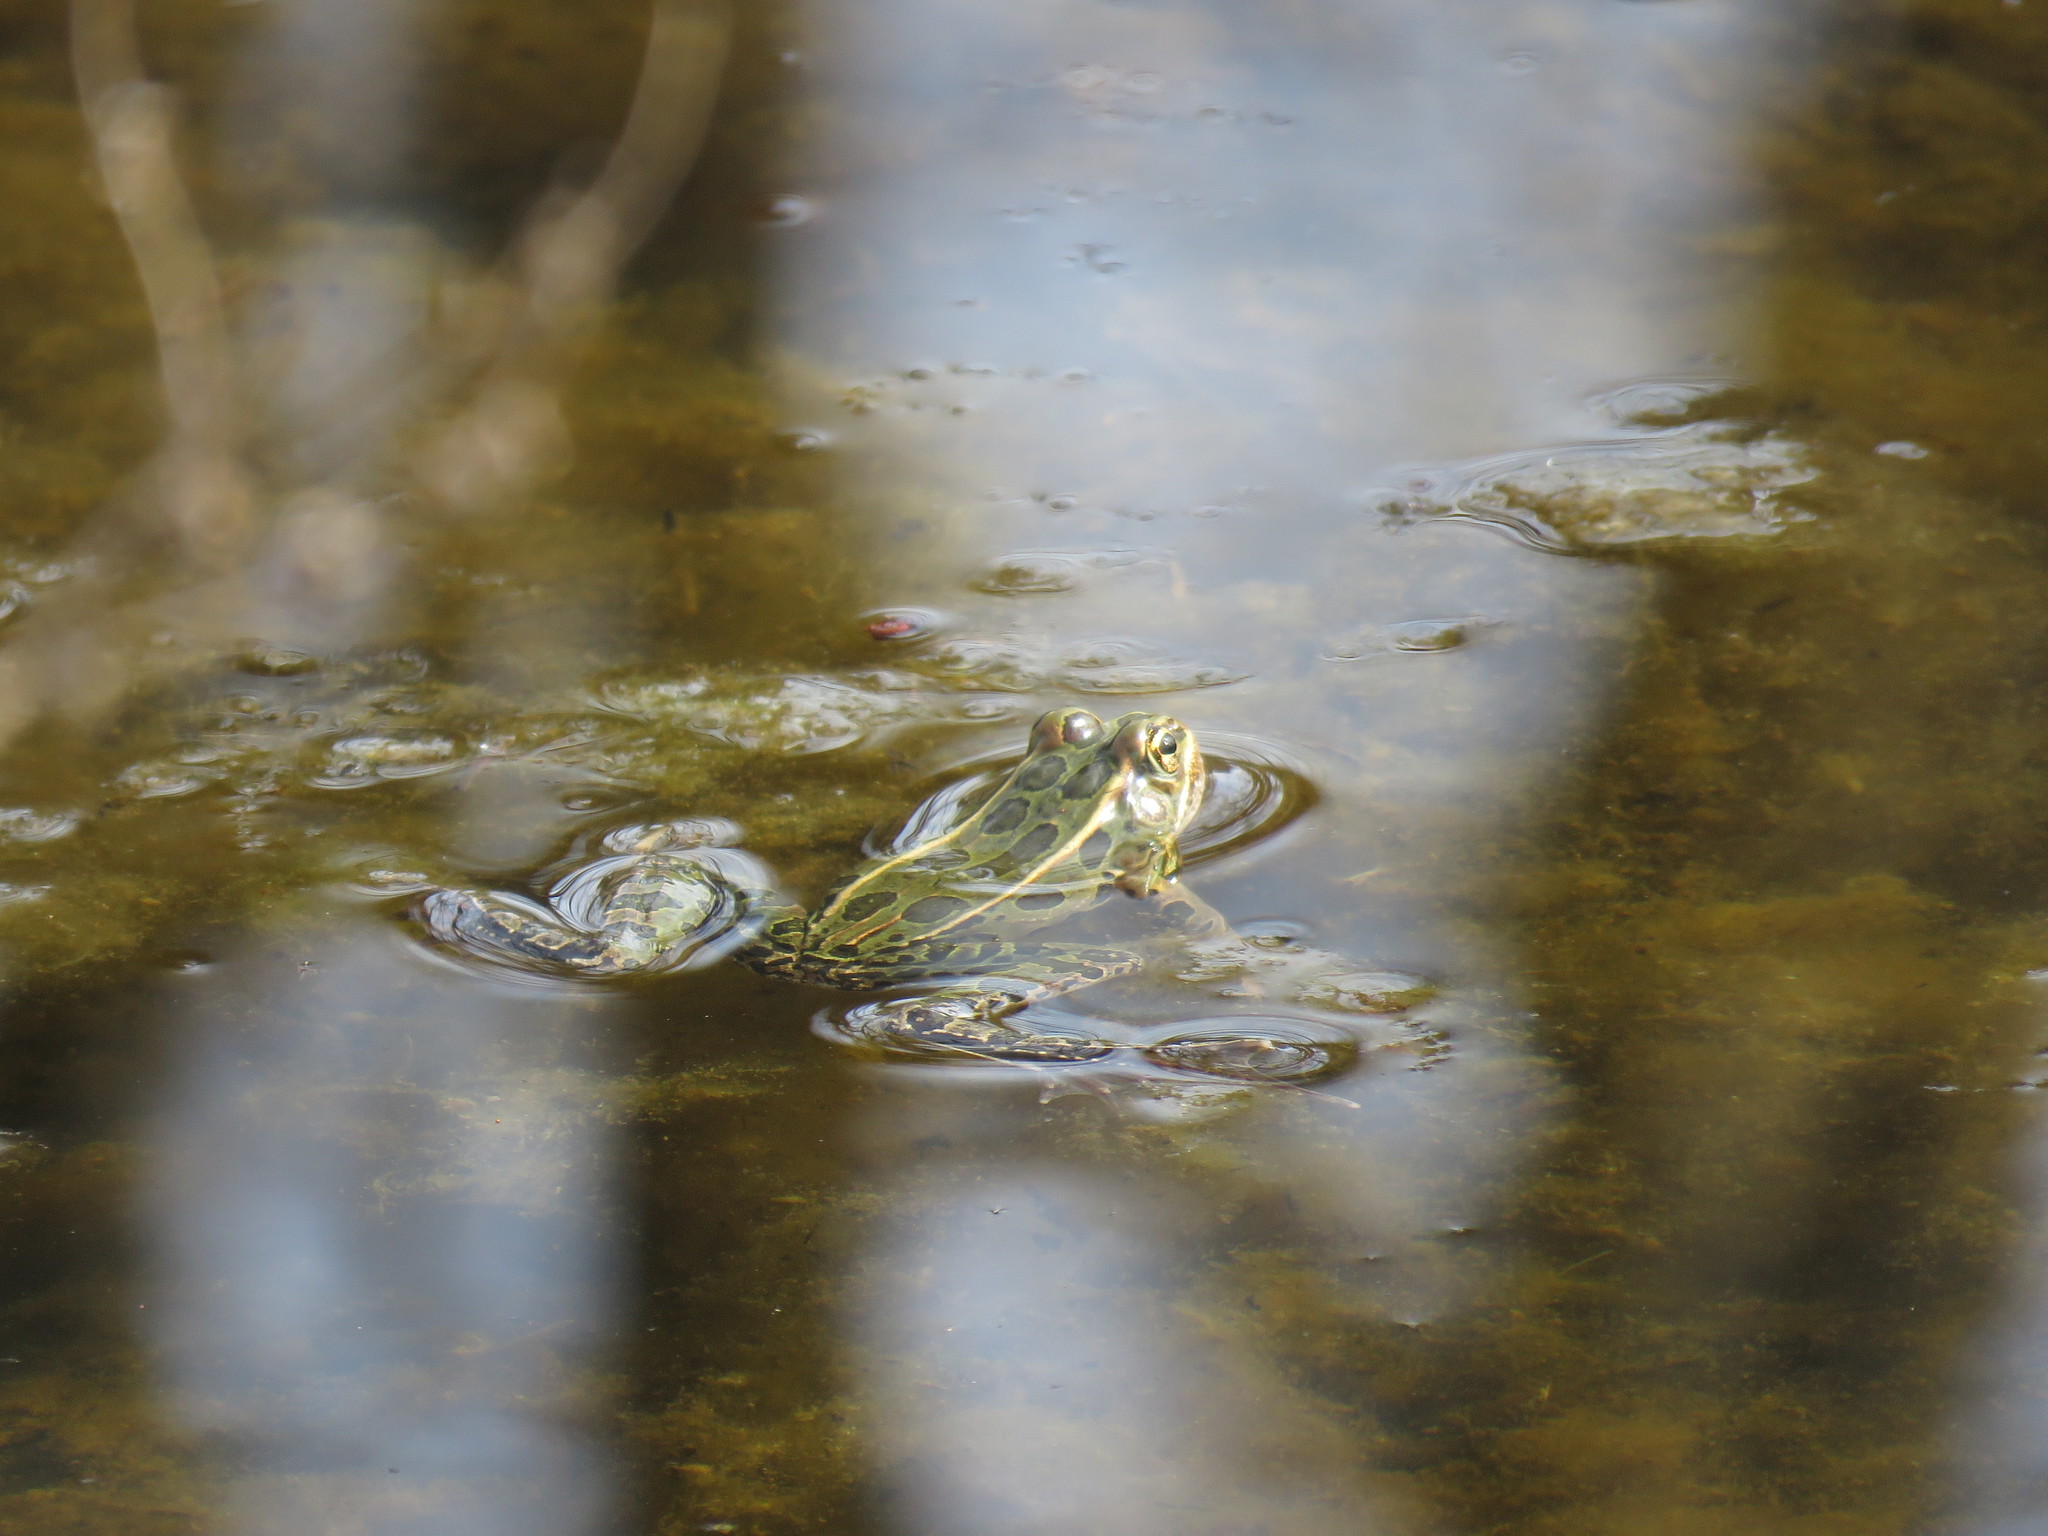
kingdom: Animalia
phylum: Chordata
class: Amphibia
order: Anura
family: Ranidae
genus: Lithobates
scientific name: Lithobates pipiens
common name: Northern leopard frog
